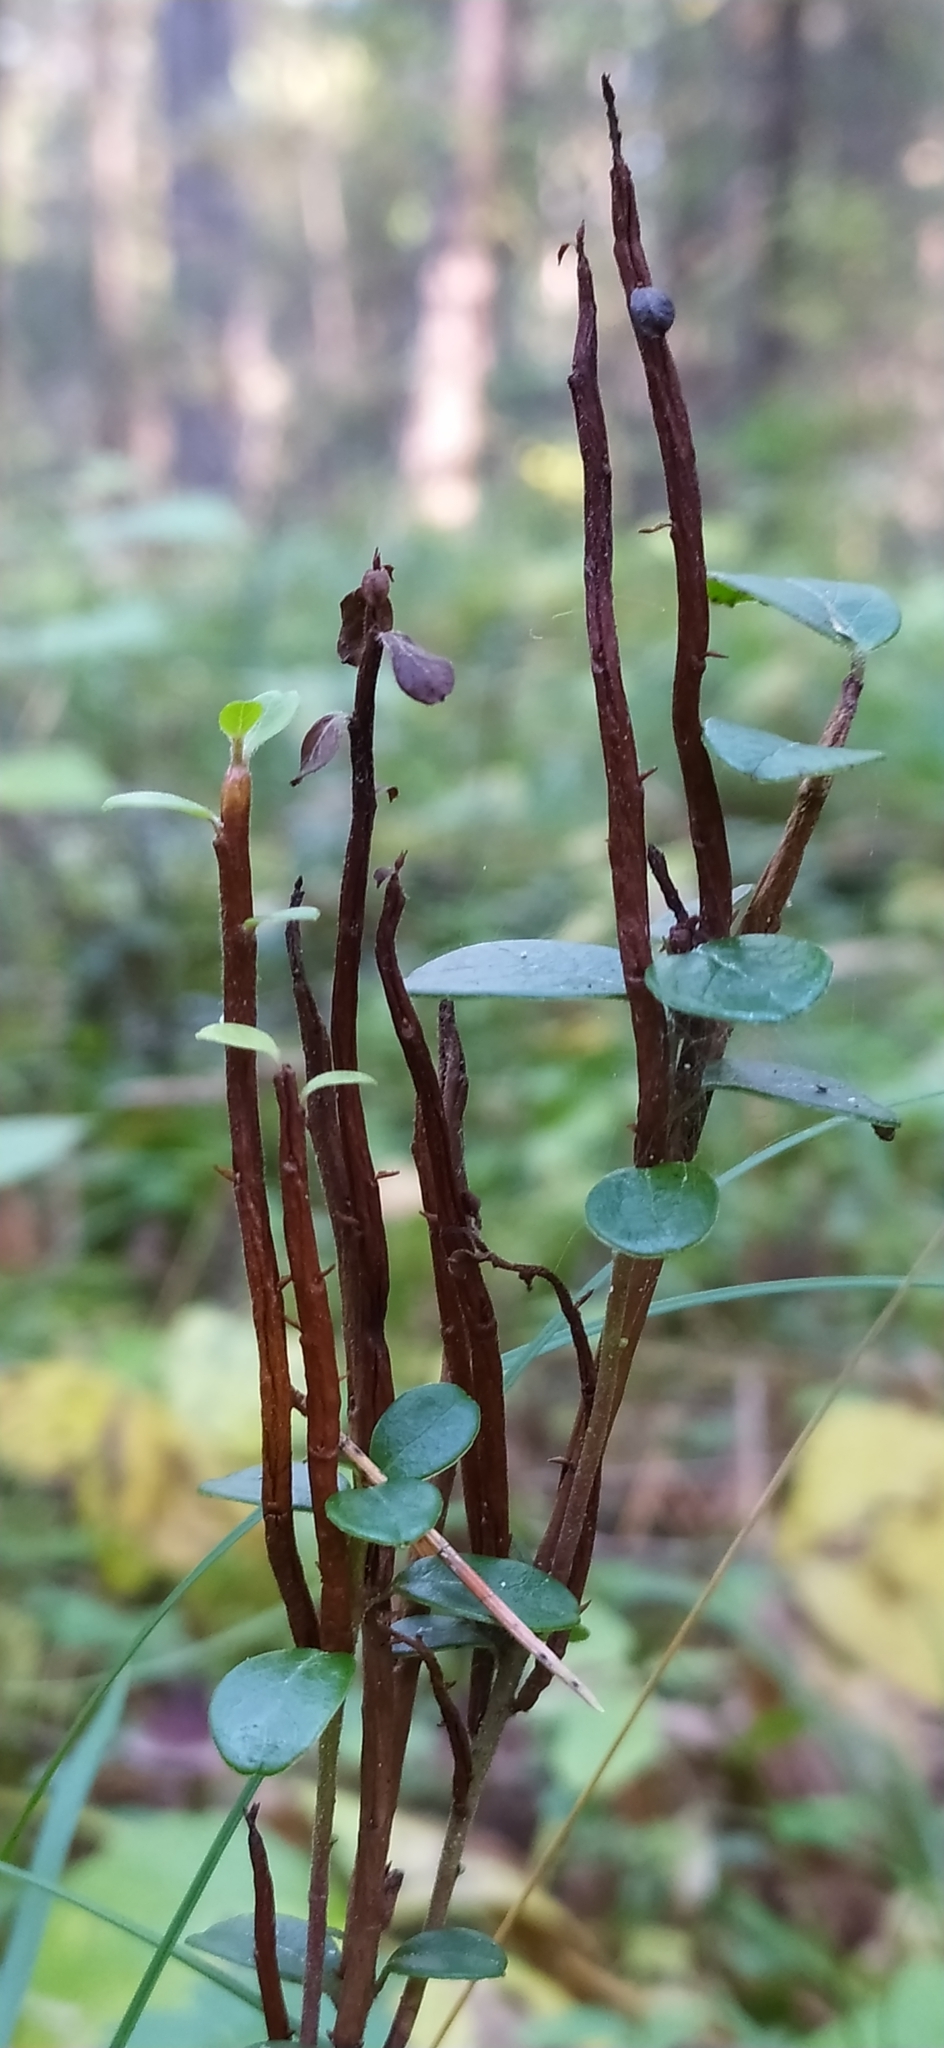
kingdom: Fungi
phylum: Basidiomycota
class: Pucciniomycetes
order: Pucciniales
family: Pucciniastraceae
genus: Calyptospora
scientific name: Calyptospora columnaris
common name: Huckleberry broom rust fungus
